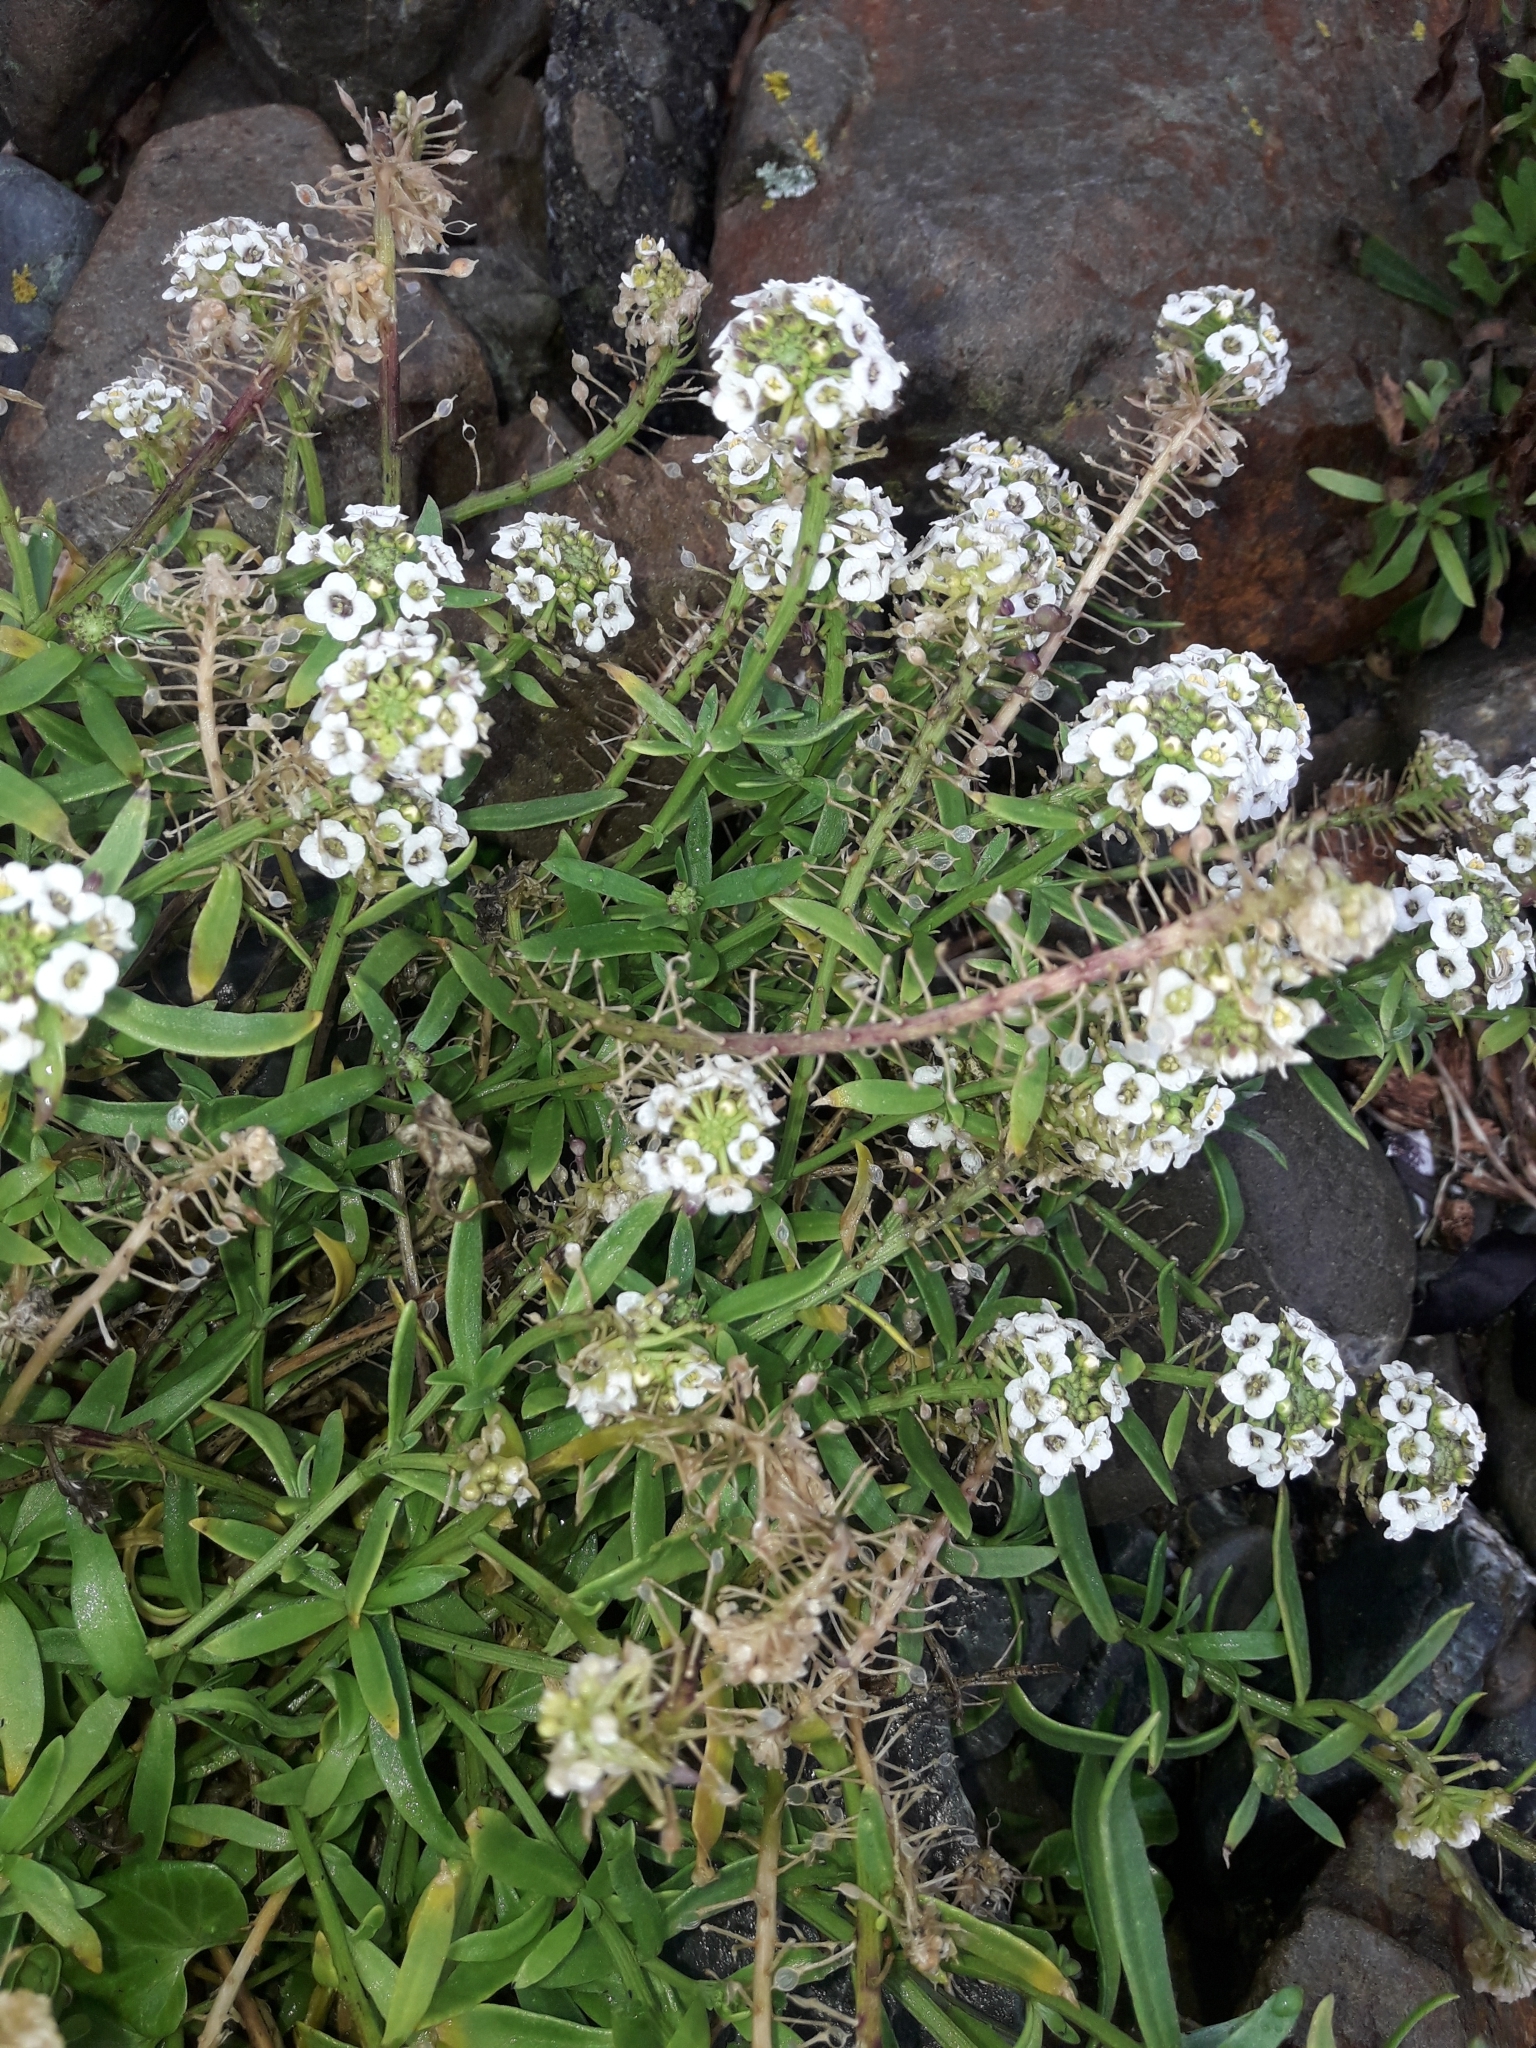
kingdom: Plantae
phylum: Tracheophyta
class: Magnoliopsida
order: Brassicales
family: Brassicaceae
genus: Lobularia
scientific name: Lobularia maritima
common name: Sweet alison
